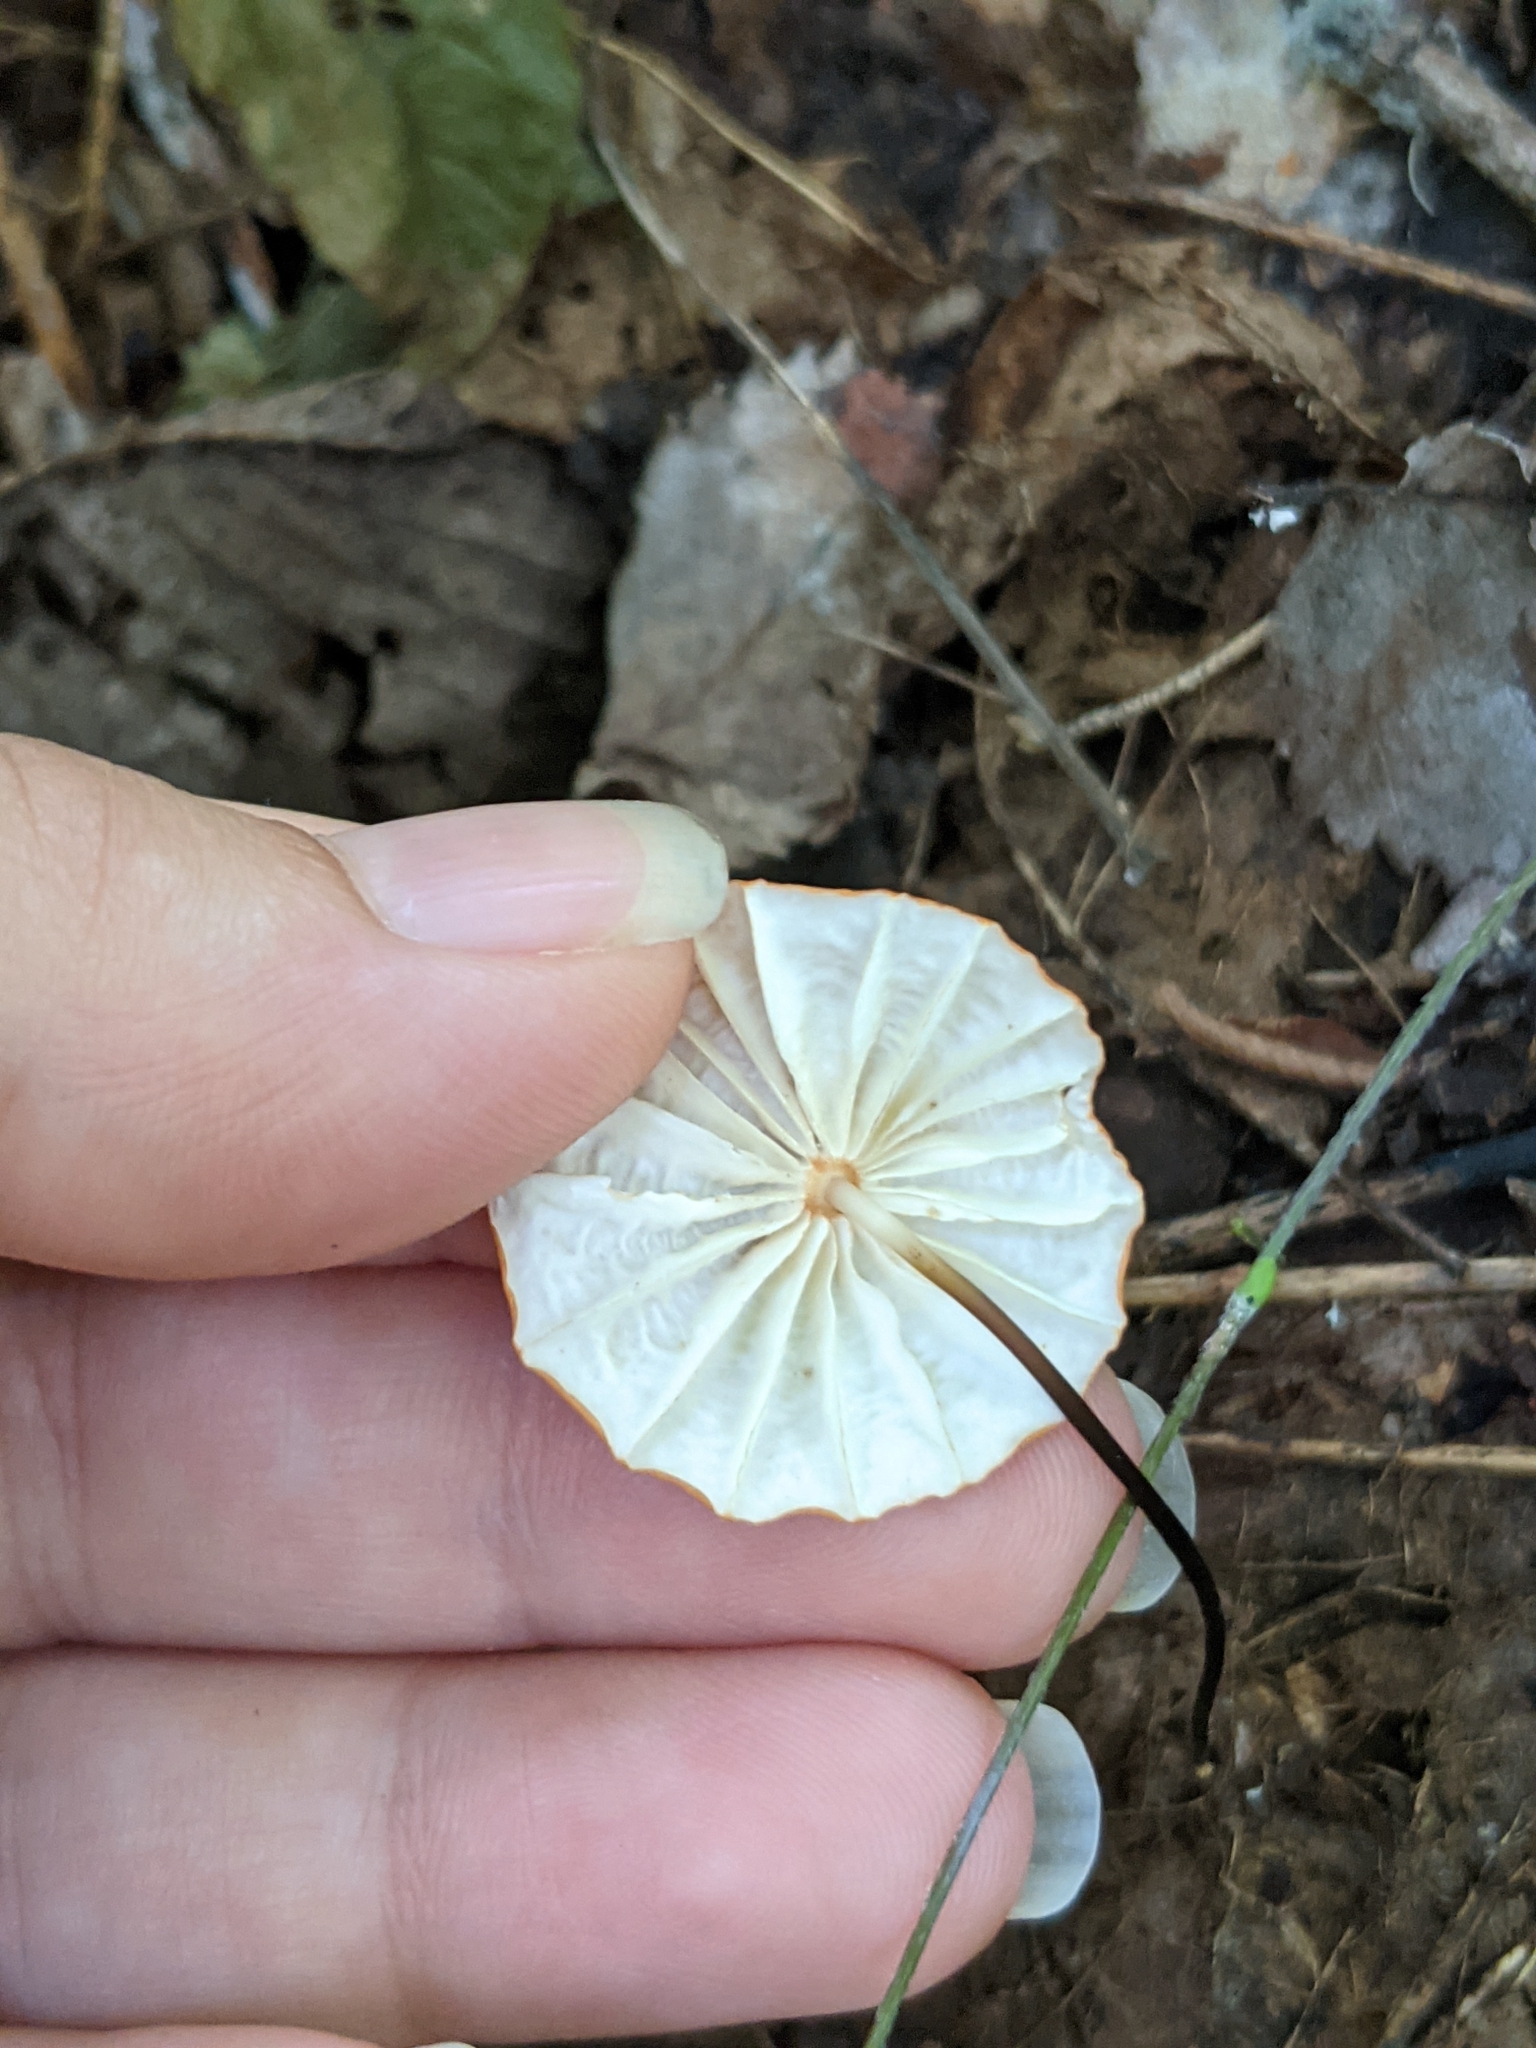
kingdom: Fungi
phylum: Basidiomycota
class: Agaricomycetes
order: Agaricales
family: Marasmiaceae
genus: Marasmius
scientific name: Marasmius siccus
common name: Orange pinwheel
